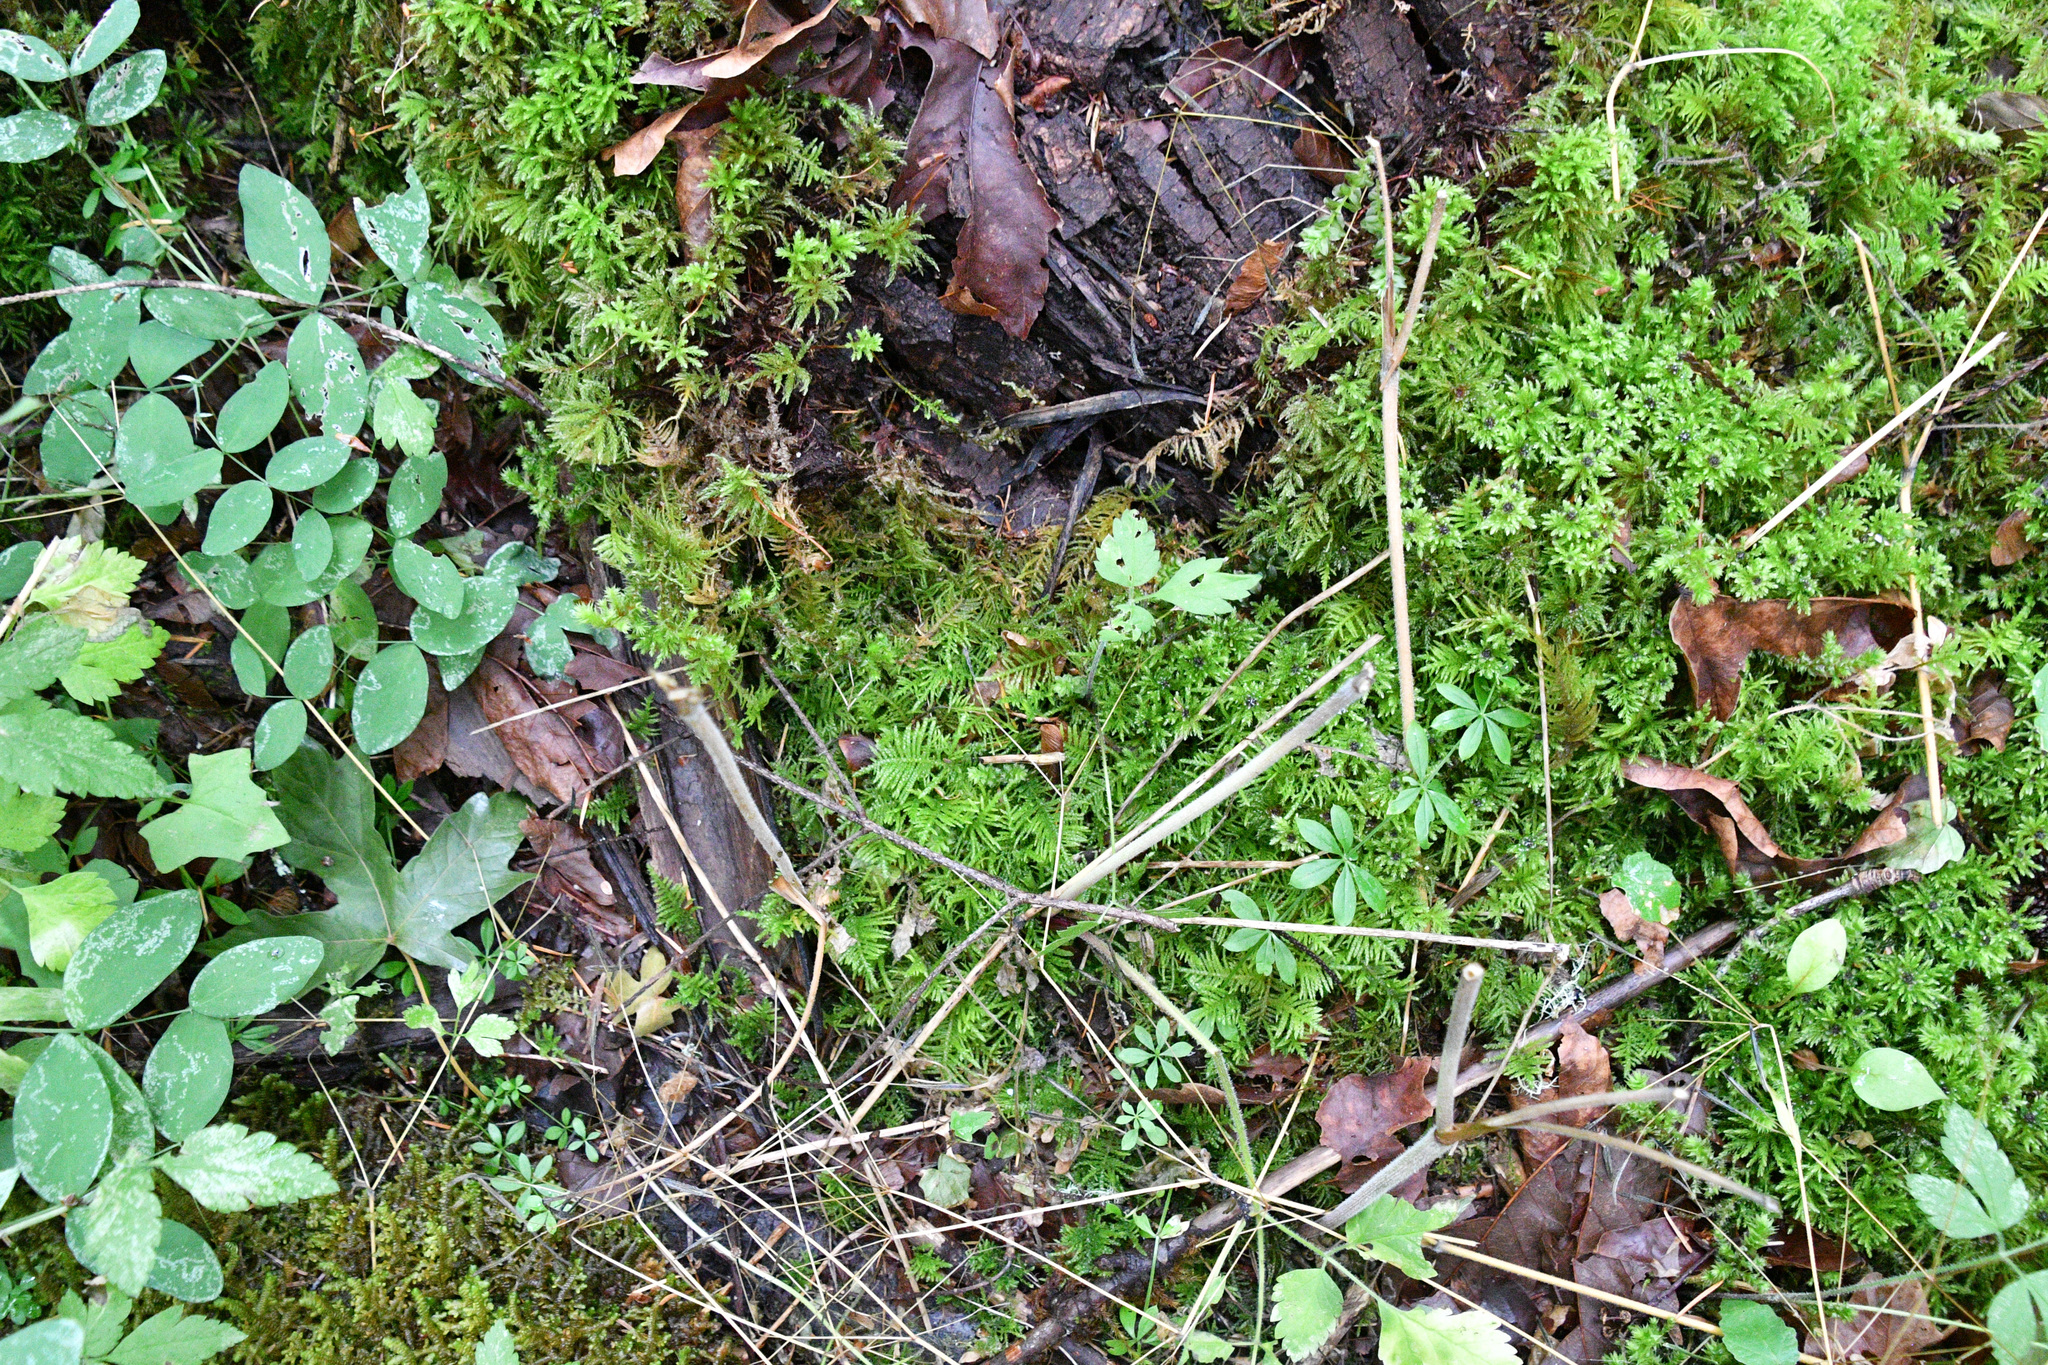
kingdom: Plantae
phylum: Bryophyta
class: Bryopsida
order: Hypnales
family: Brachytheciaceae
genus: Kindbergia
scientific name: Kindbergia oregana
